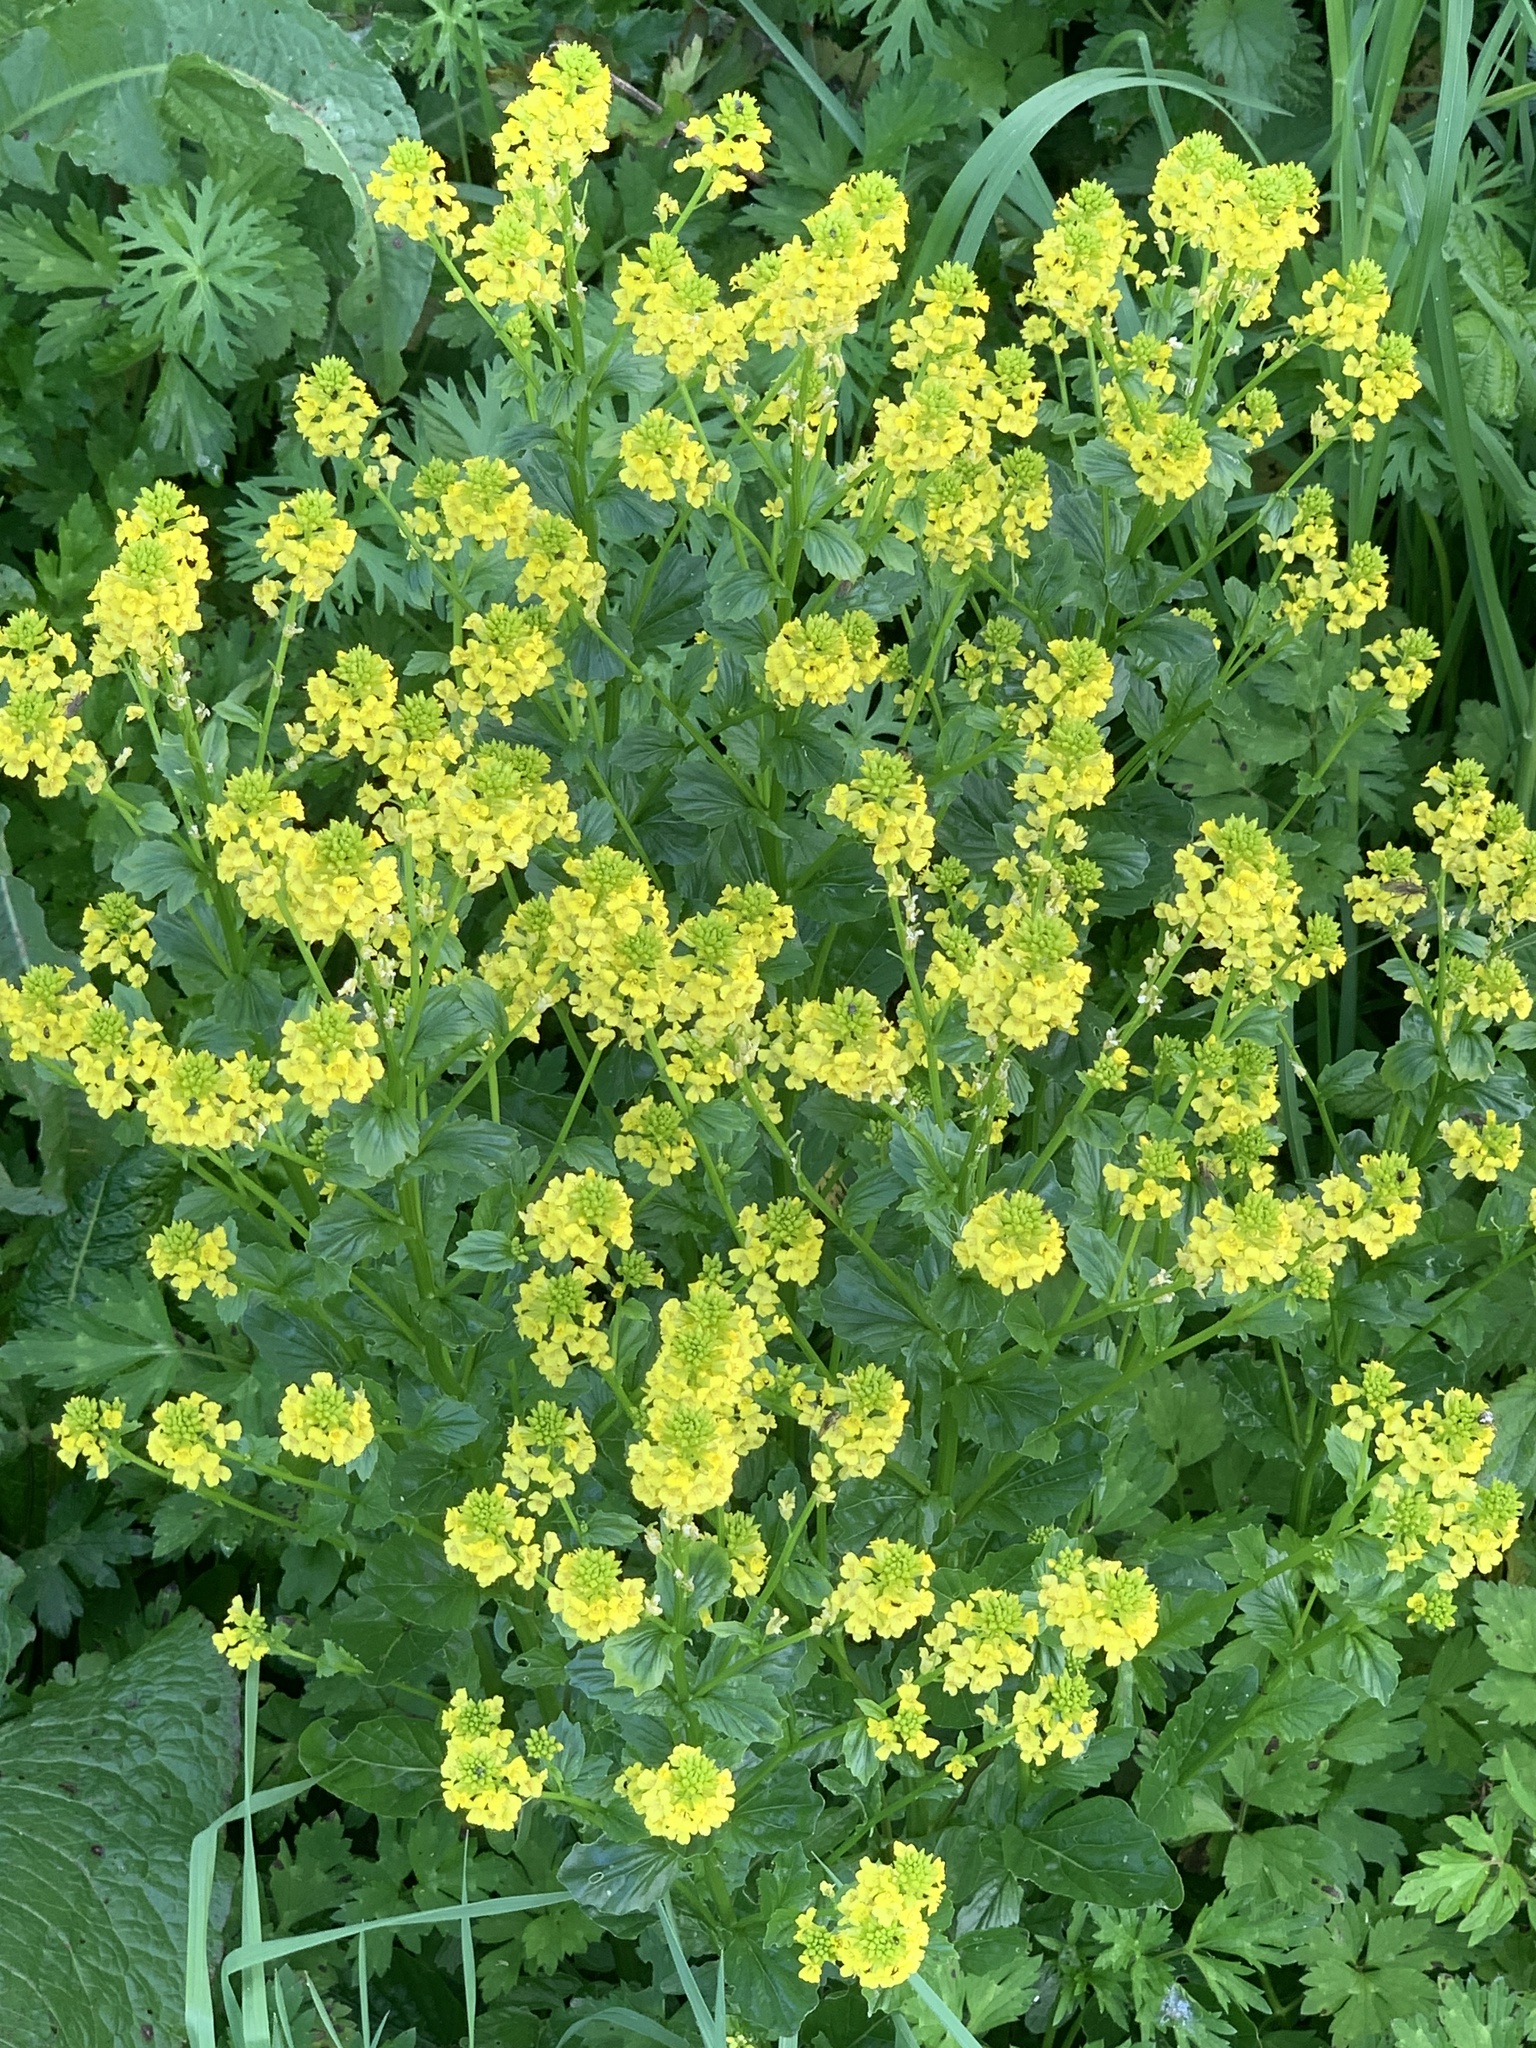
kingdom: Plantae
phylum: Tracheophyta
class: Magnoliopsida
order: Brassicales
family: Brassicaceae
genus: Barbarea
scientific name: Barbarea vulgaris
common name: Cressy-greens
